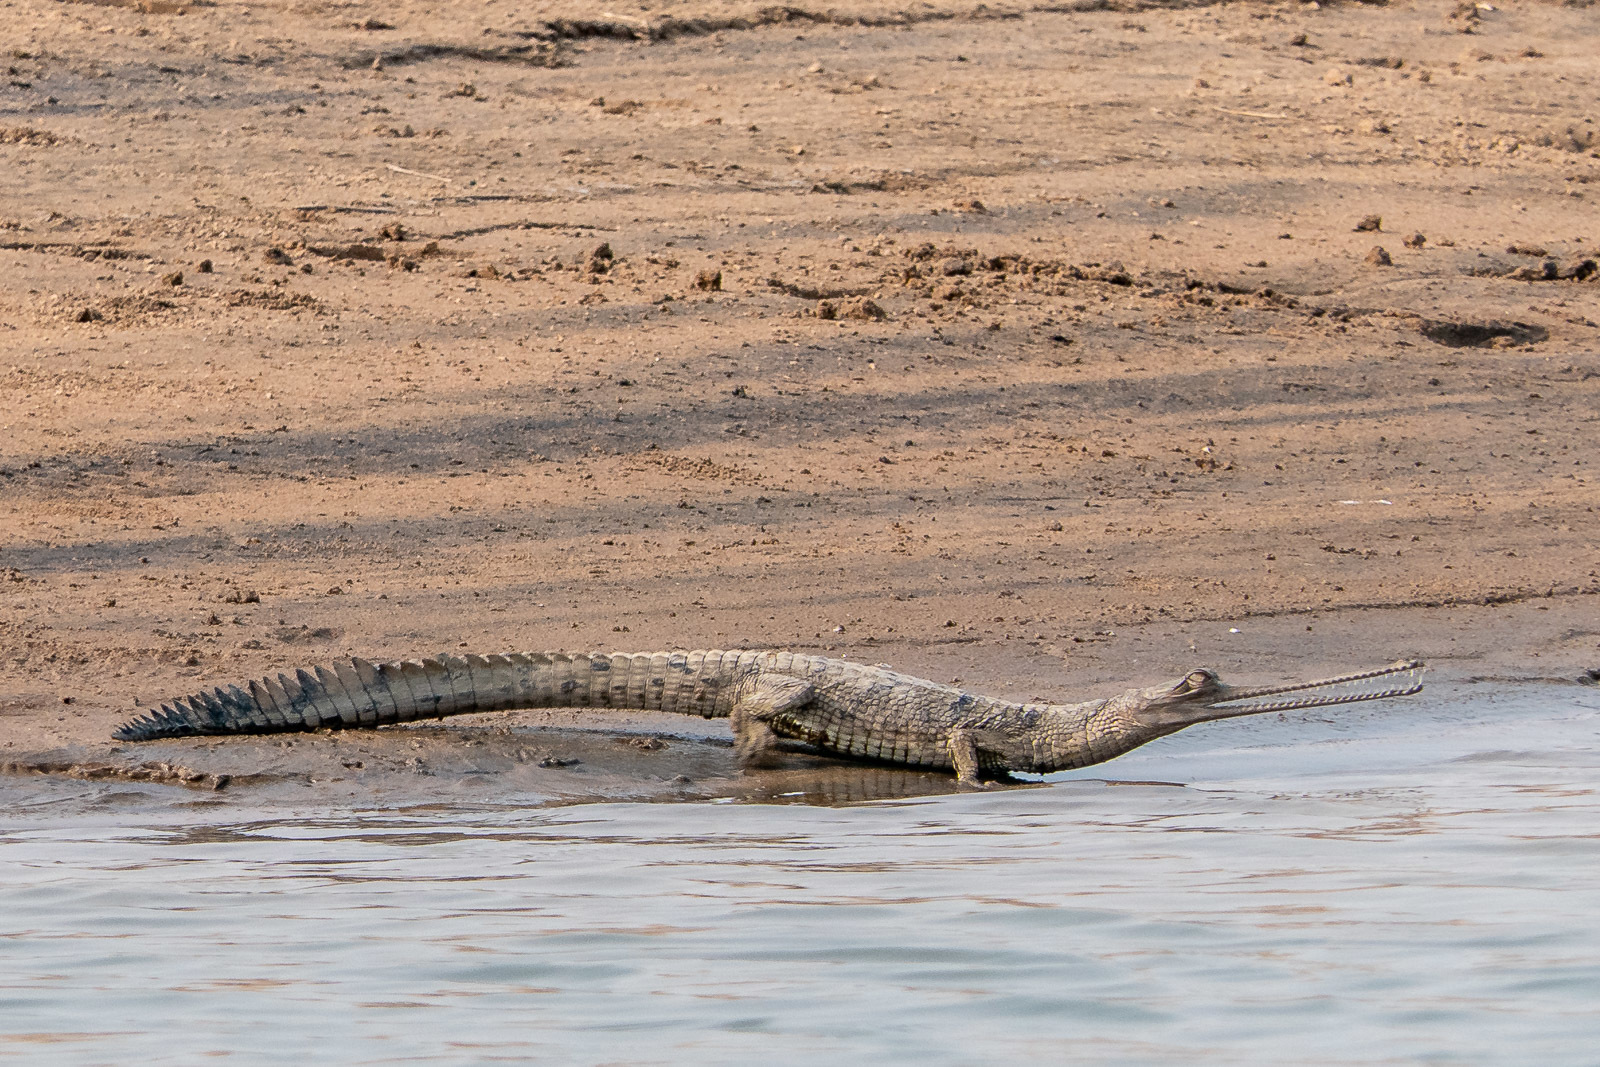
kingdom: Animalia
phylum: Chordata
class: Crocodylia
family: Gavialidae
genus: Gavialis
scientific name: Gavialis gangeticus
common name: Gharial
